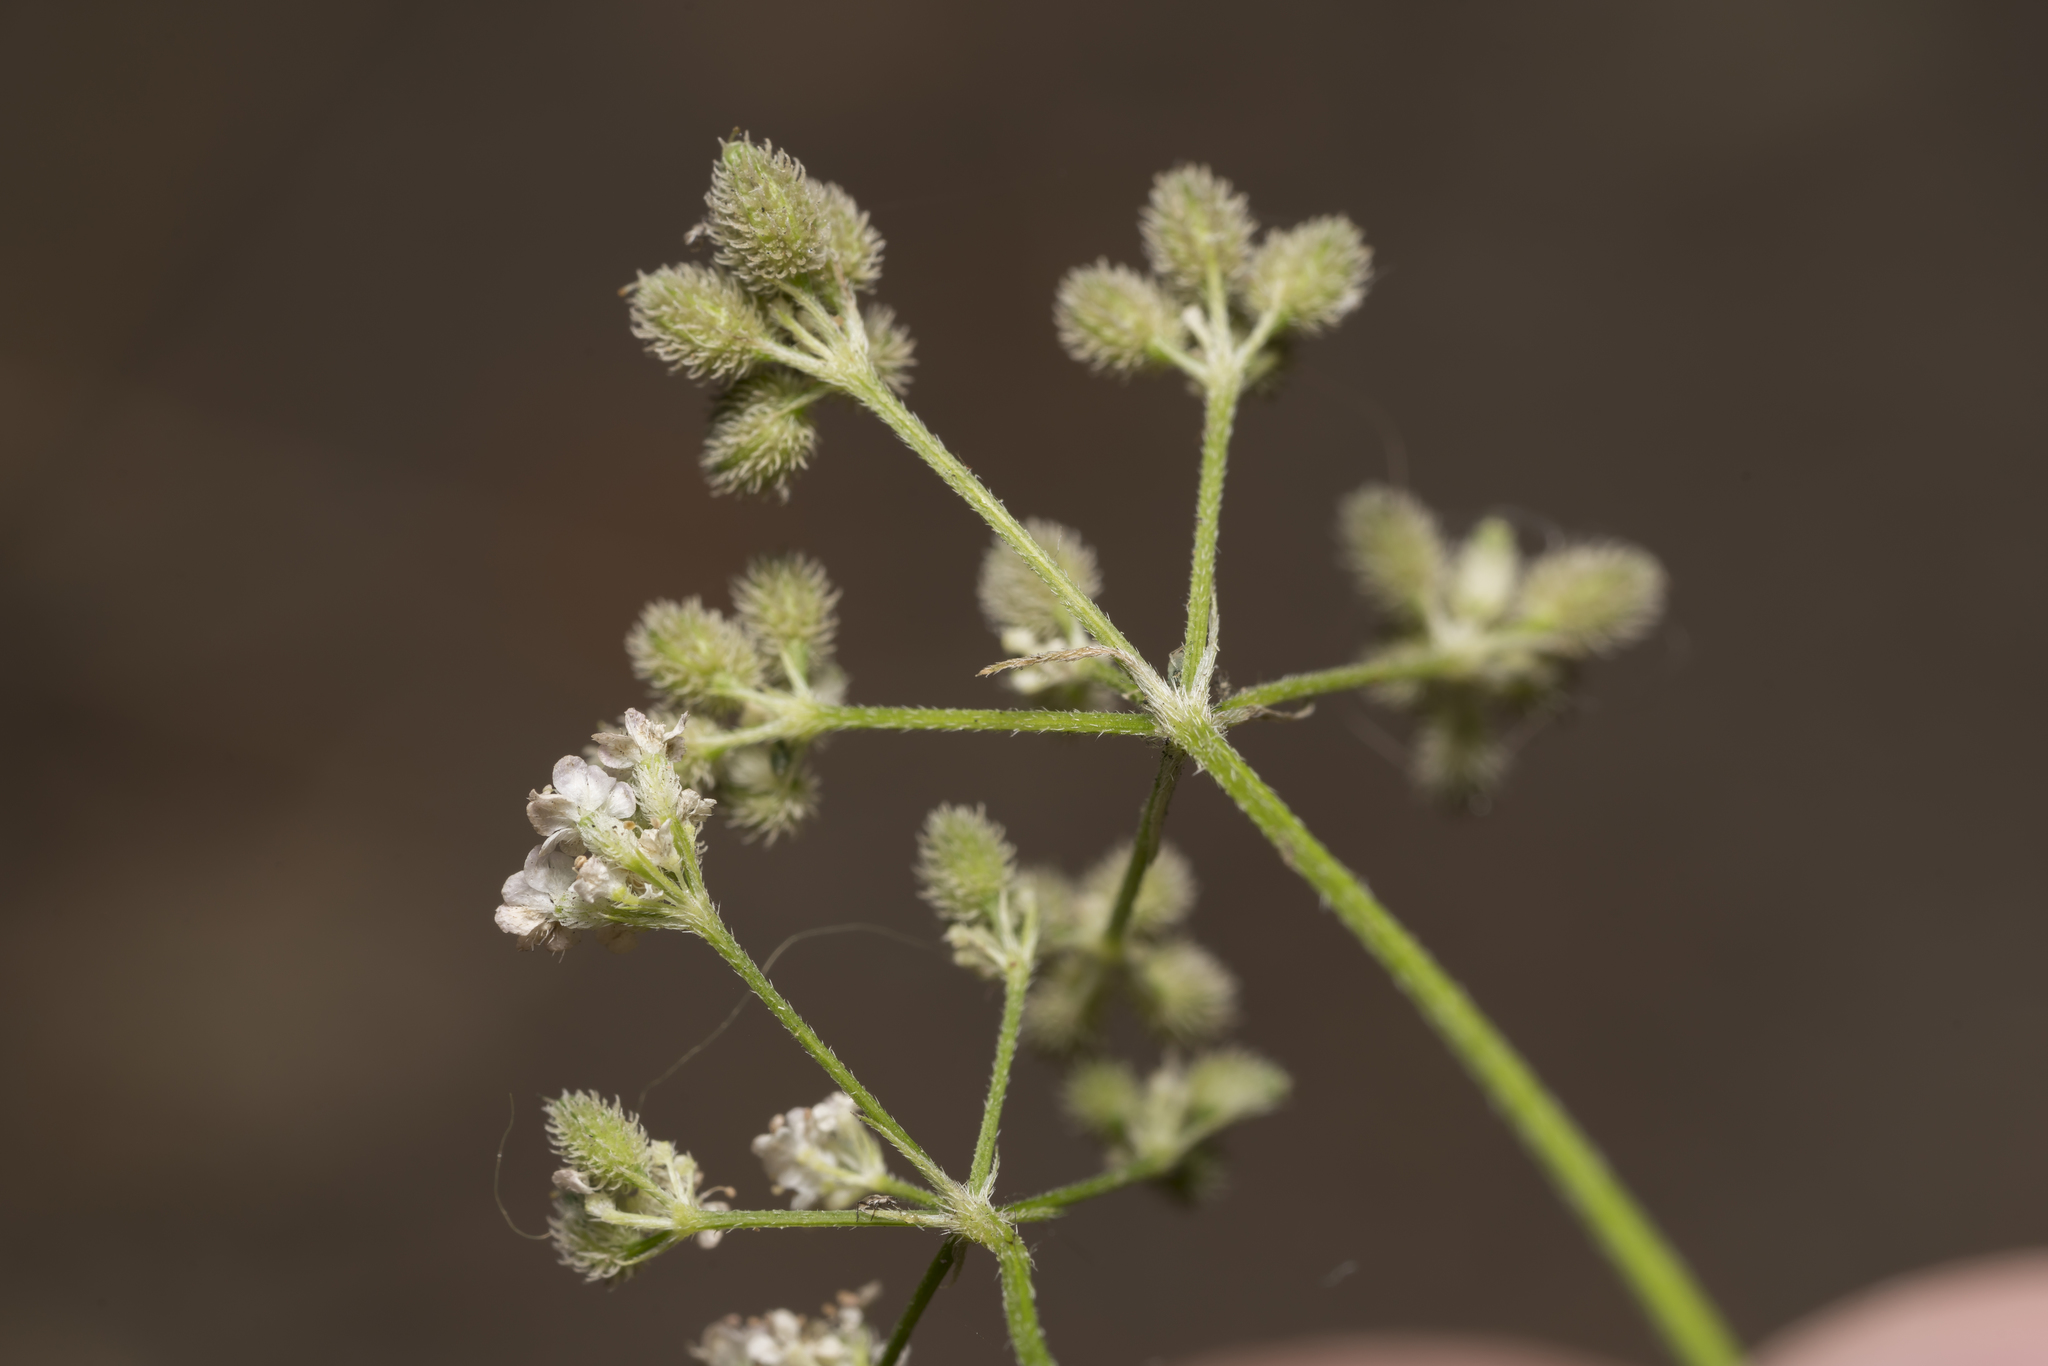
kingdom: Plantae
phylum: Tracheophyta
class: Magnoliopsida
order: Apiales
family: Apiaceae
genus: Torilis
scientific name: Torilis japonica
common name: Upright hedge-parsley
